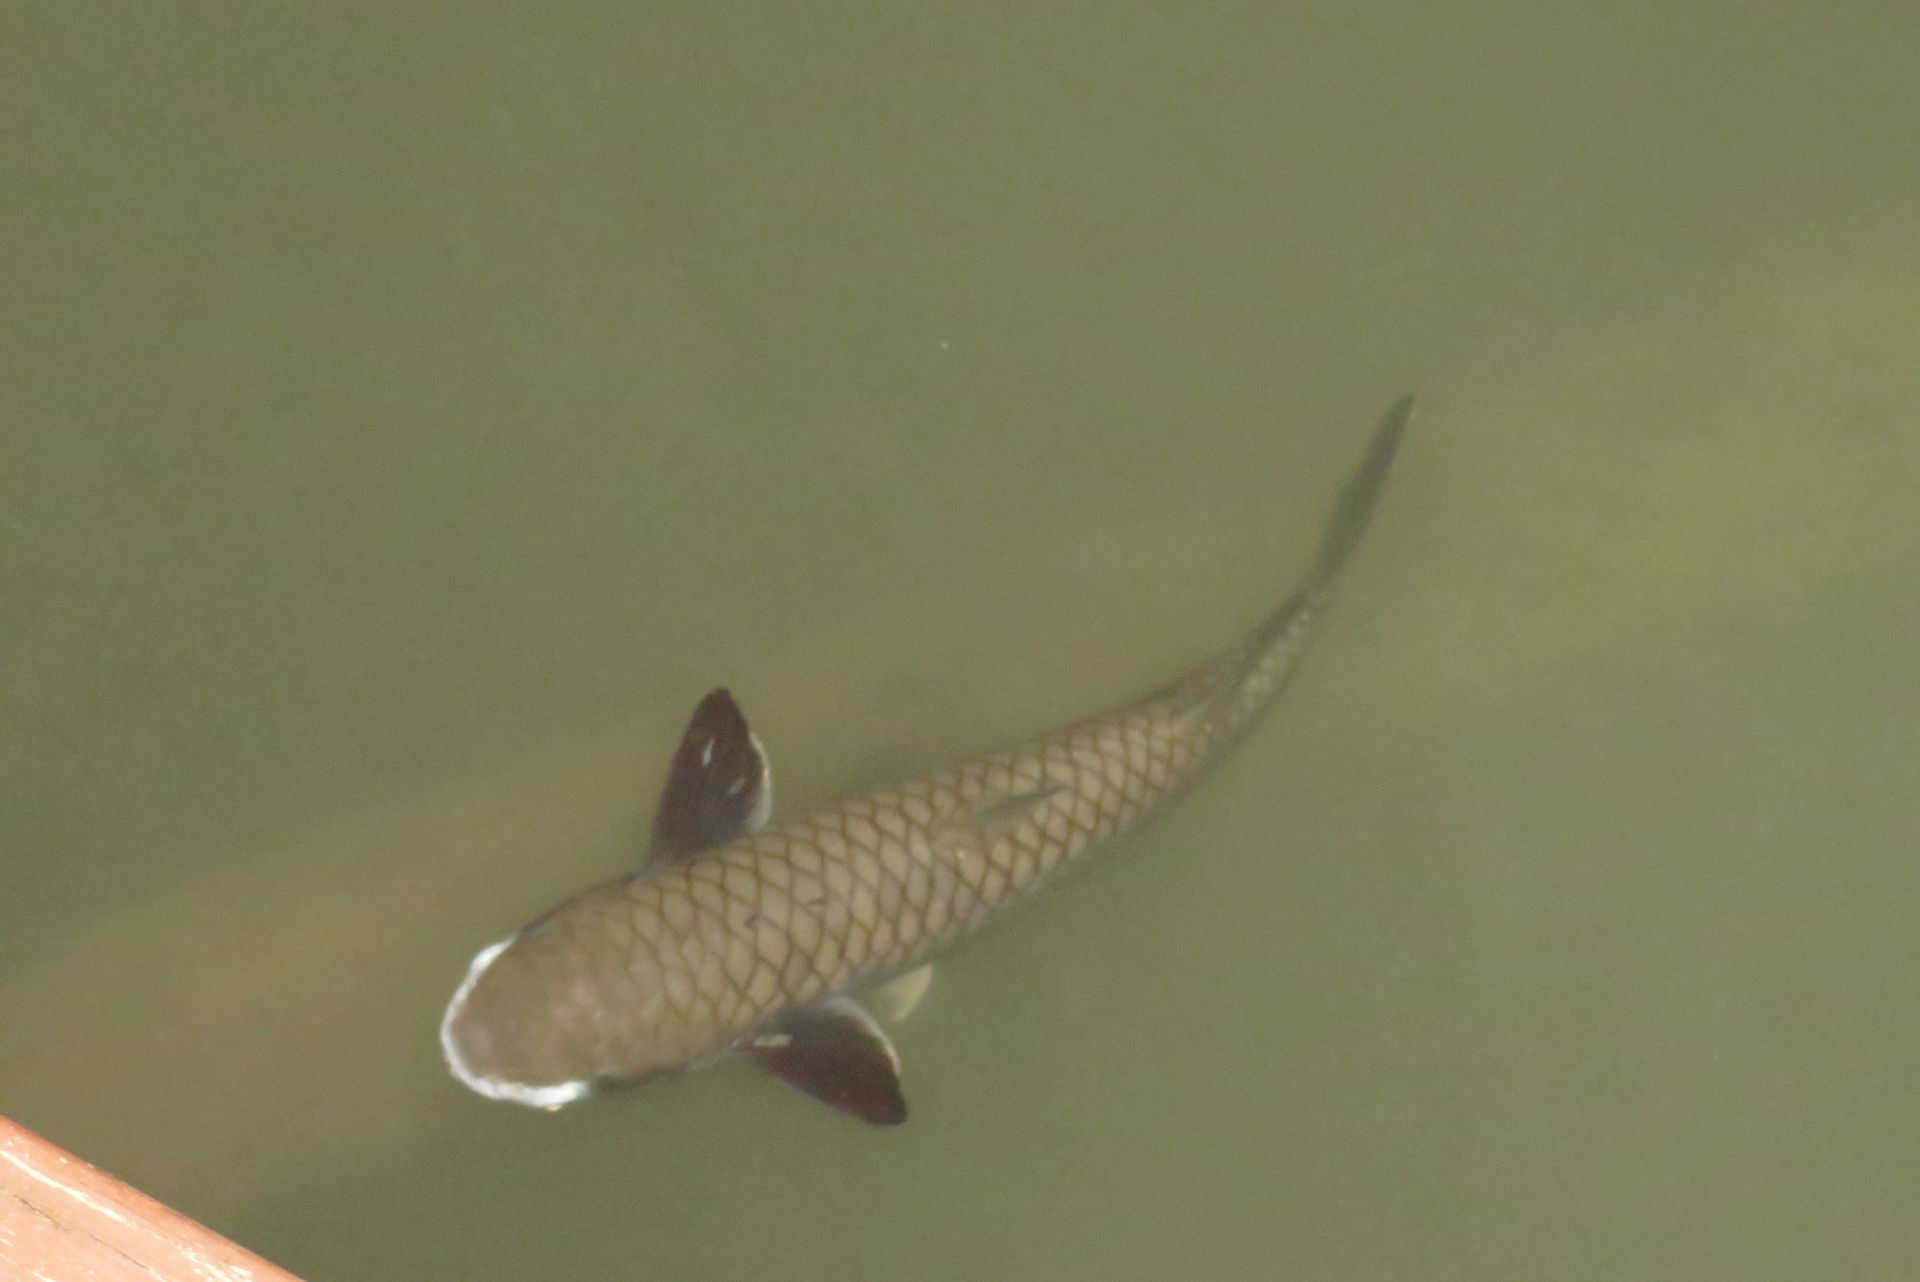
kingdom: Animalia
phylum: Chordata
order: Mugiliformes
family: Mugilidae
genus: Ellochelon
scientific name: Ellochelon vaigiensis
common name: Squaretail mullet
